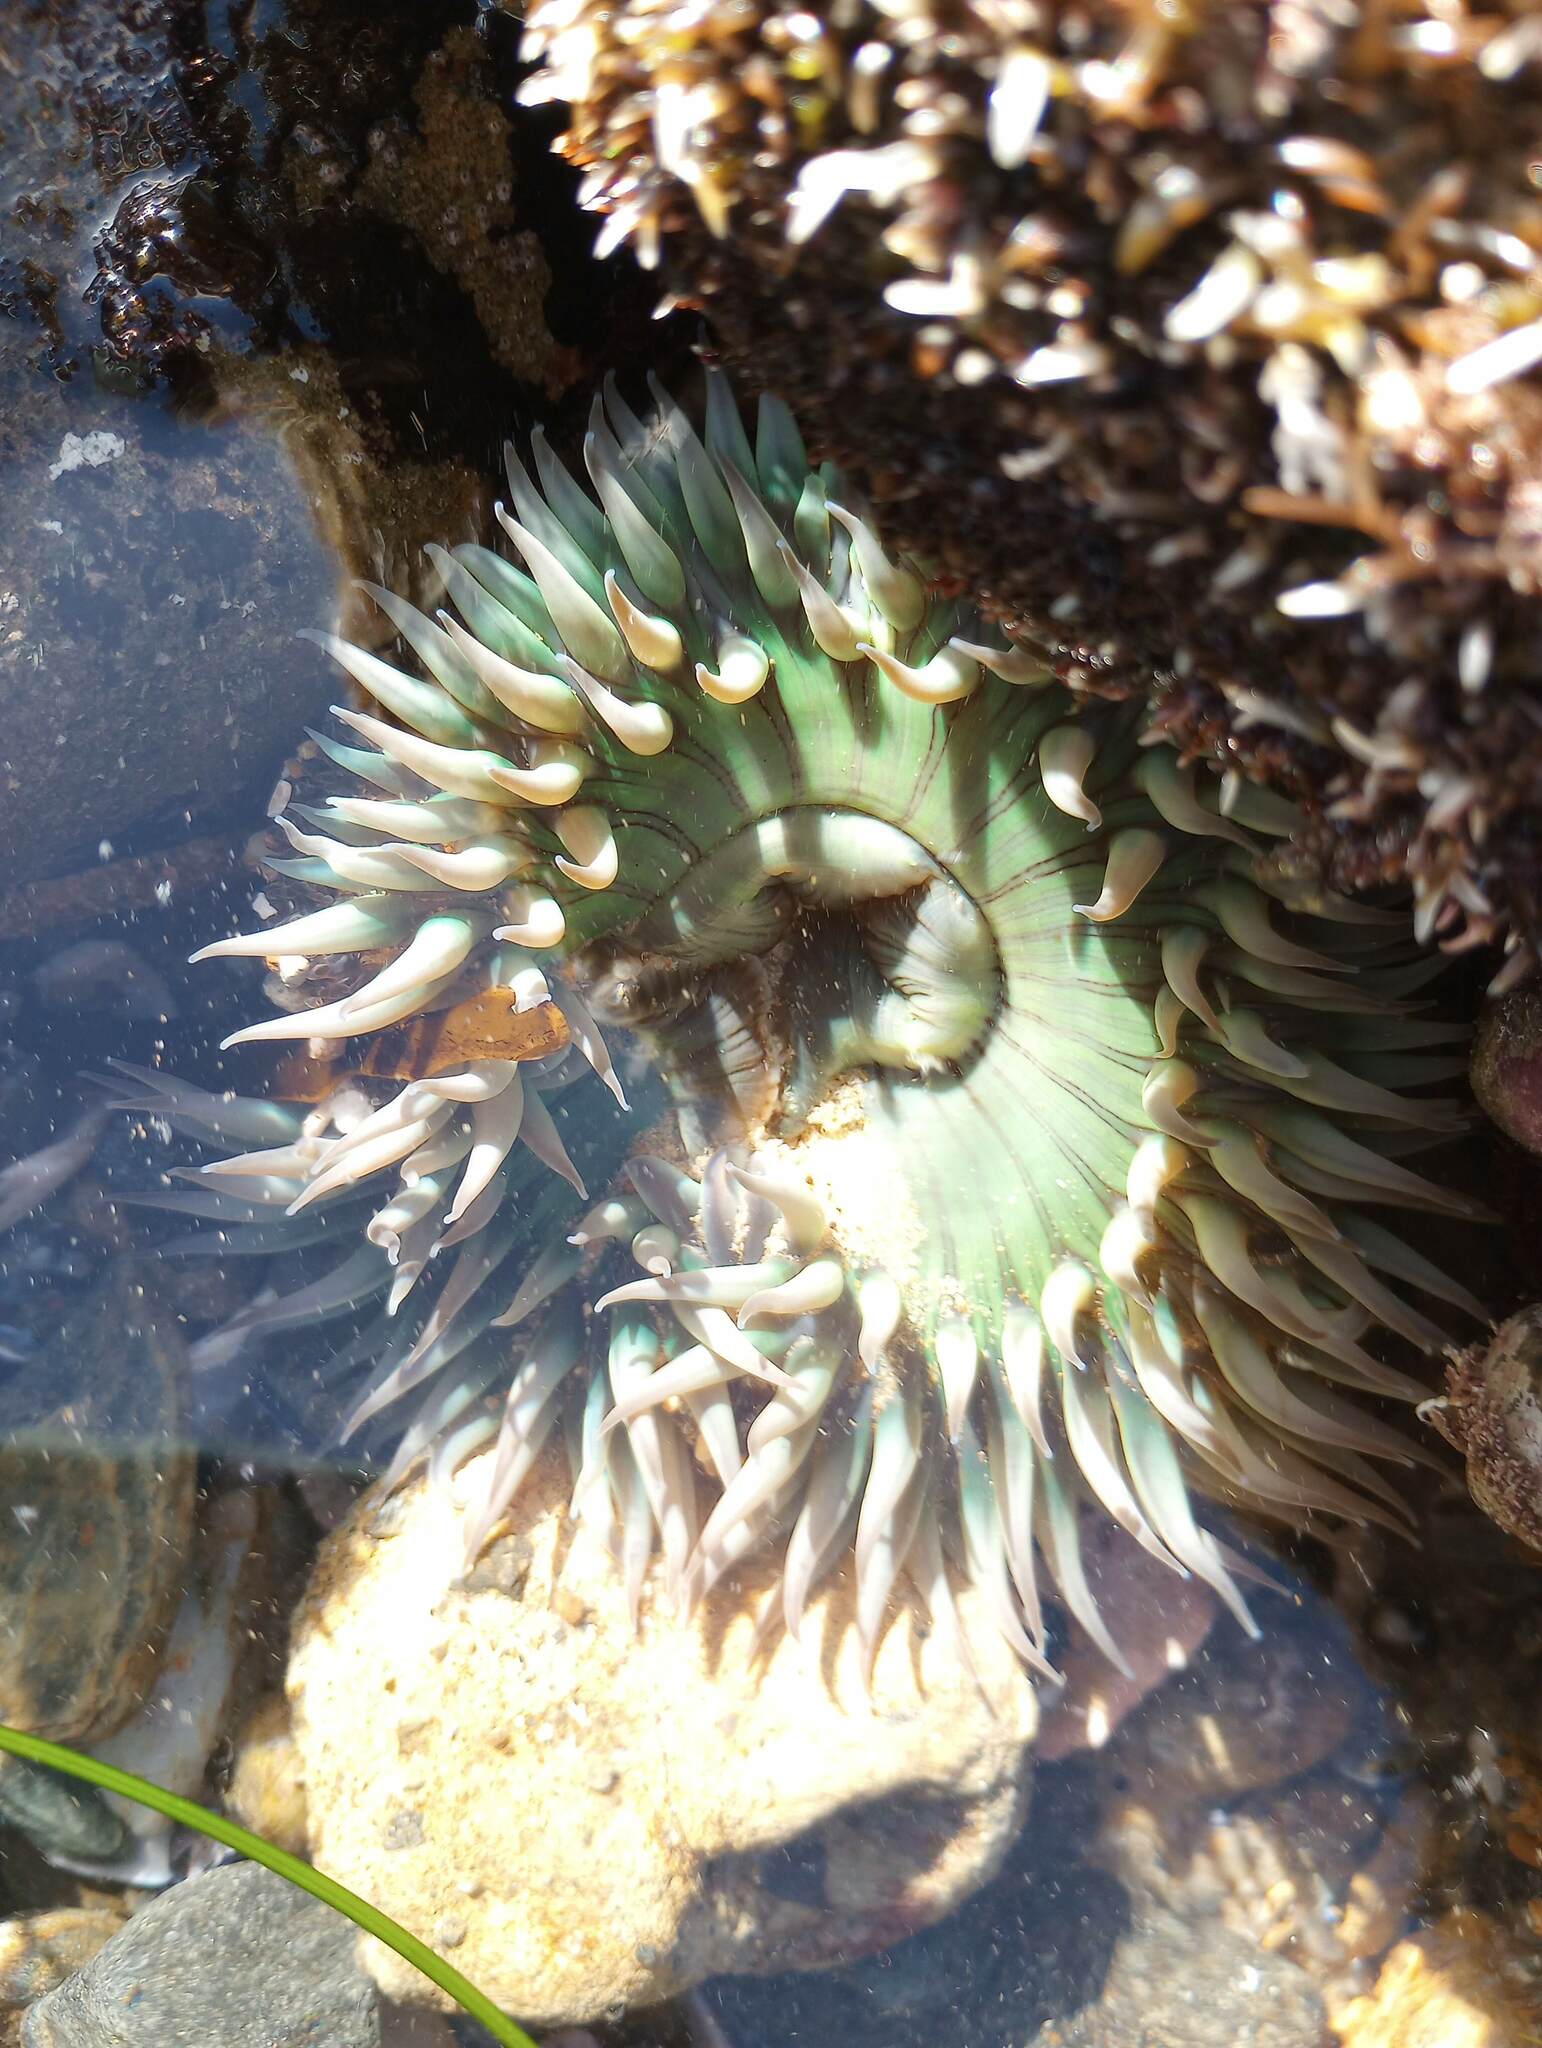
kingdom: Animalia
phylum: Cnidaria
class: Anthozoa
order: Actiniaria
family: Actiniidae
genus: Anthopleura
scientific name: Anthopleura sola
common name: Sun anemone
